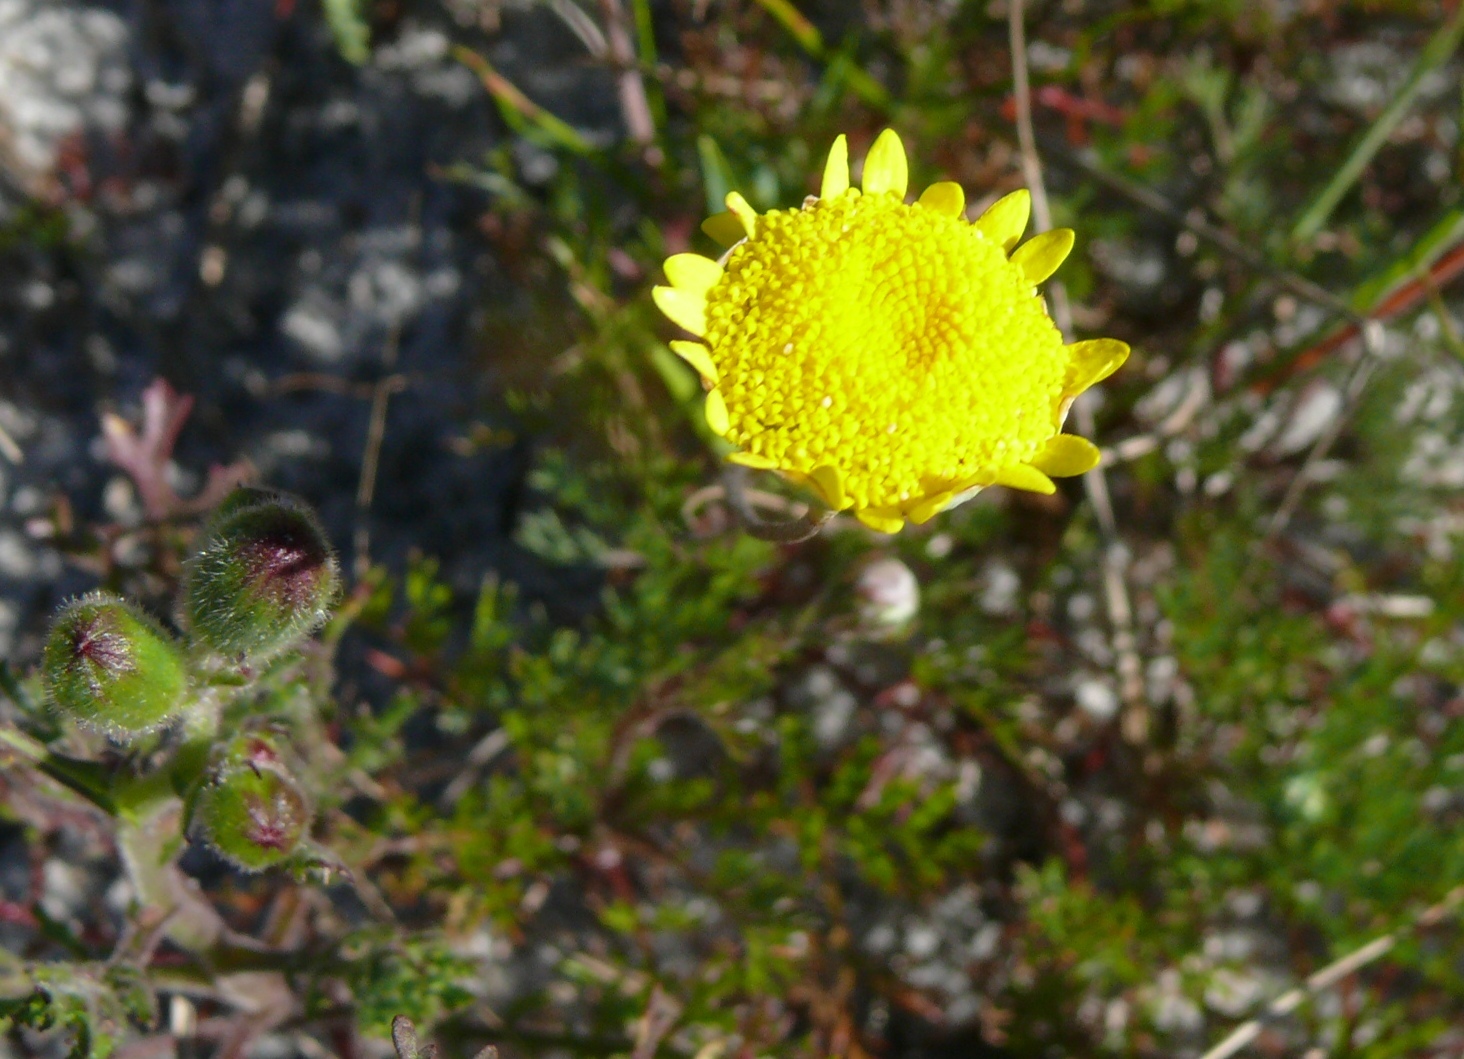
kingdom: Plantae
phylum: Tracheophyta
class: Magnoliopsida
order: Asterales
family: Asteraceae
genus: Cotula
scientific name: Cotula pruinosa
